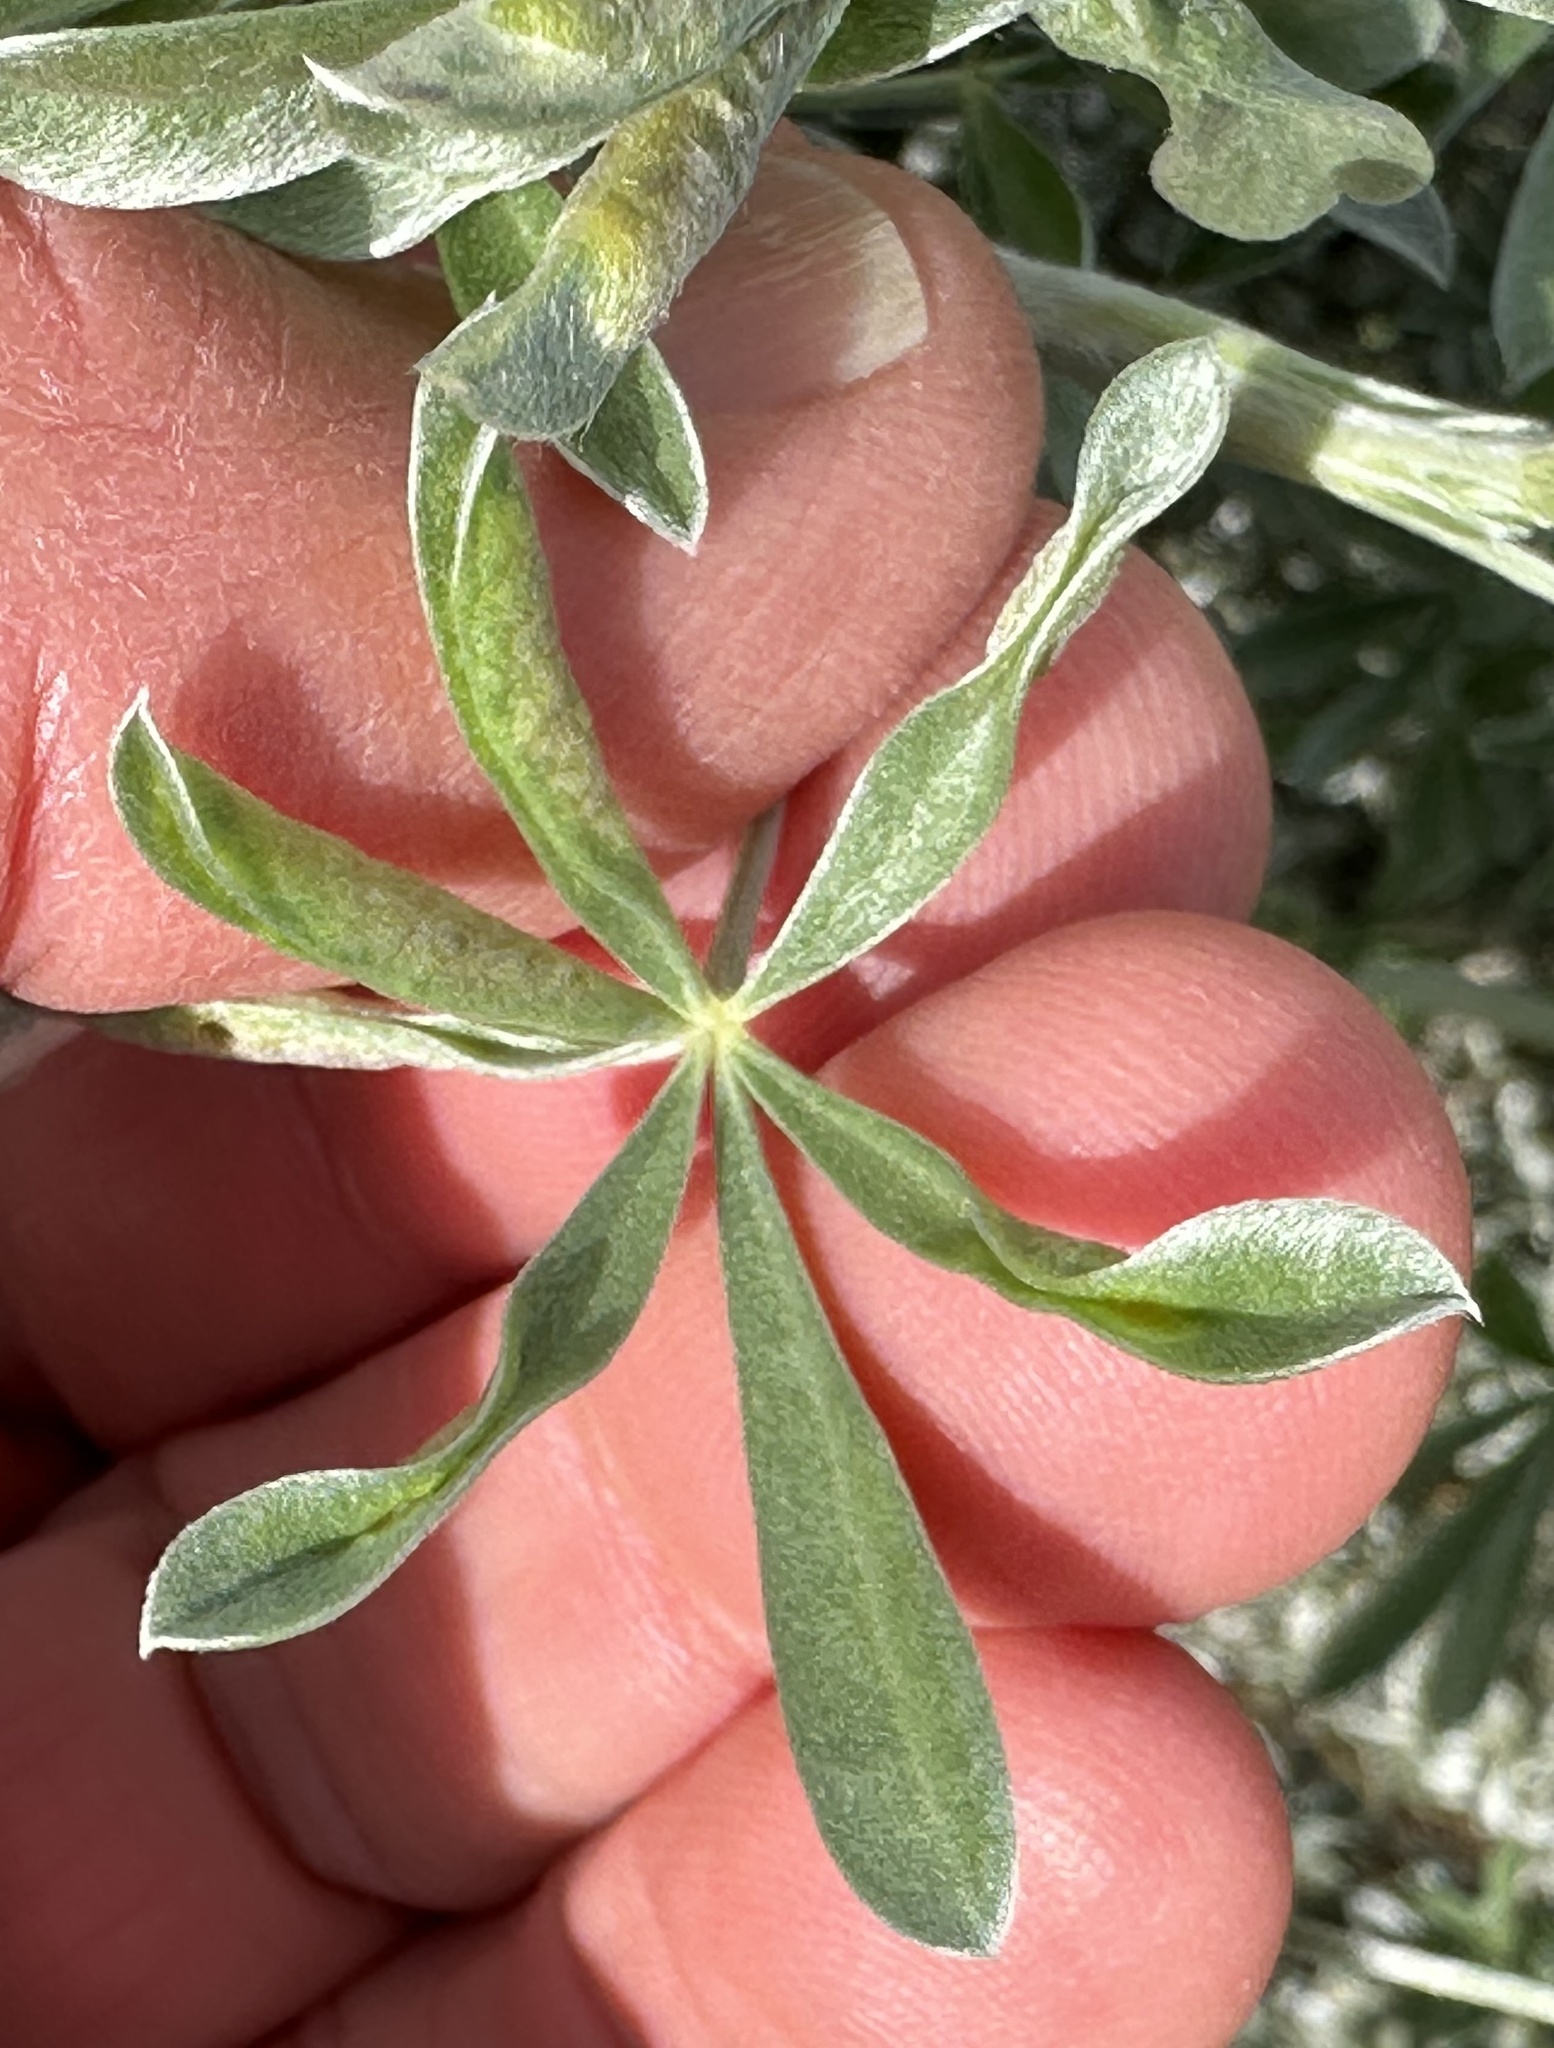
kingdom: Animalia
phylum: Arthropoda
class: Insecta
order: Diptera
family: Cecidomyiidae
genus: Dasineura
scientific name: Dasineura lupinorum
